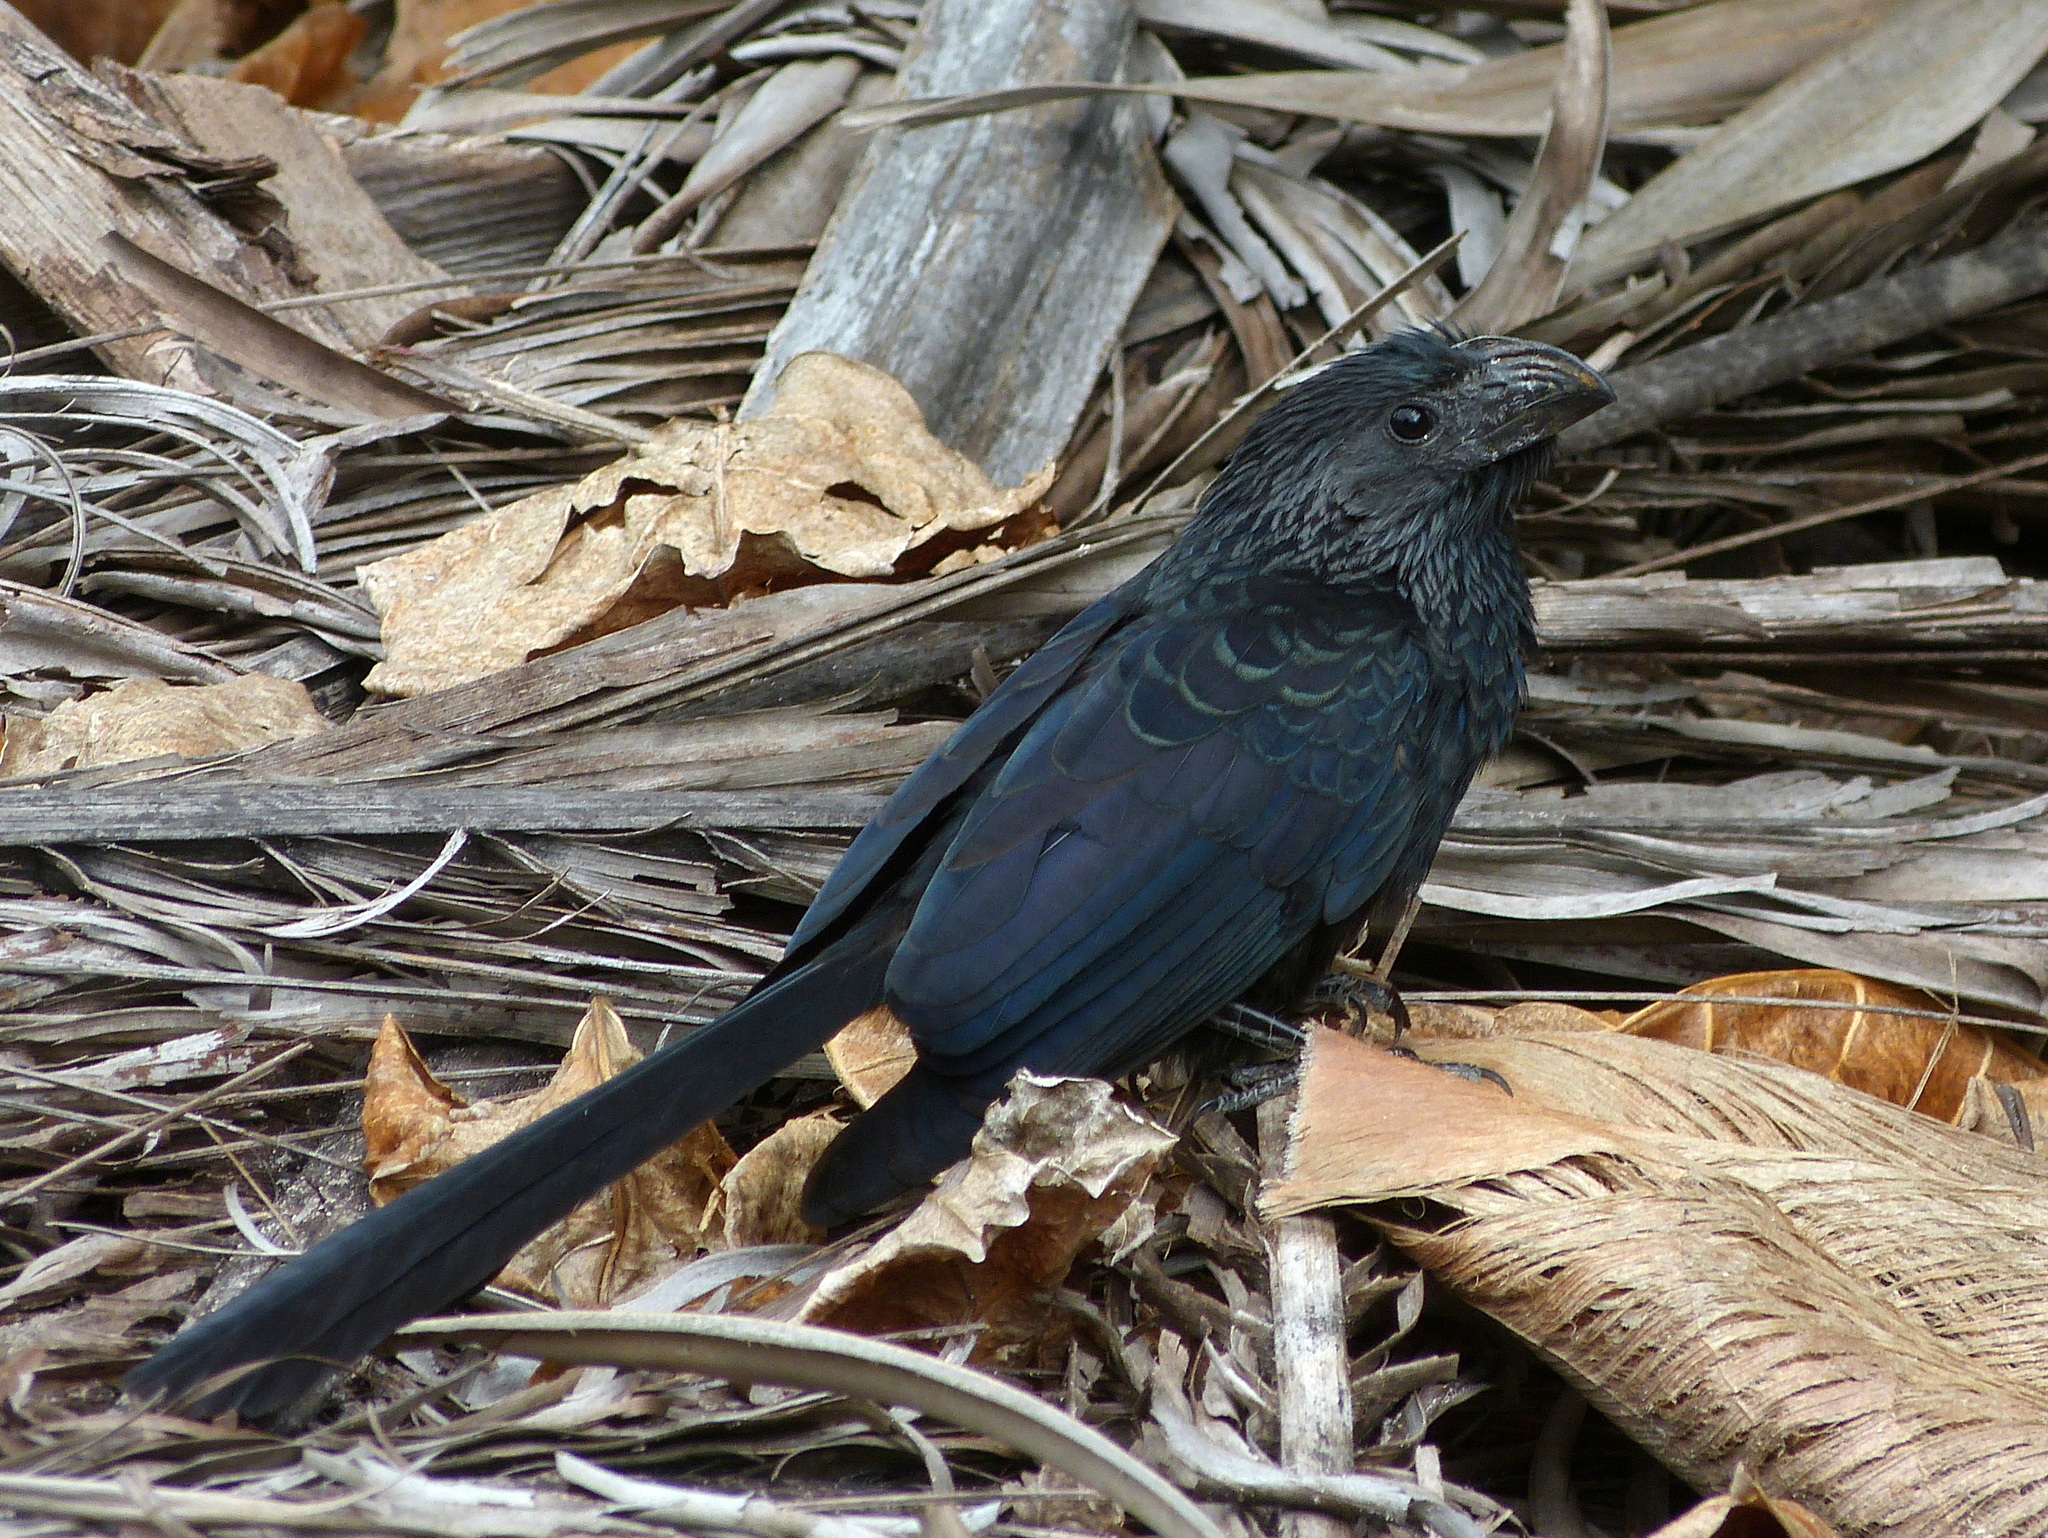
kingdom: Animalia
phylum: Chordata
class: Aves
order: Cuculiformes
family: Cuculidae
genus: Crotophaga
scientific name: Crotophaga sulcirostris
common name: Groove-billed ani
